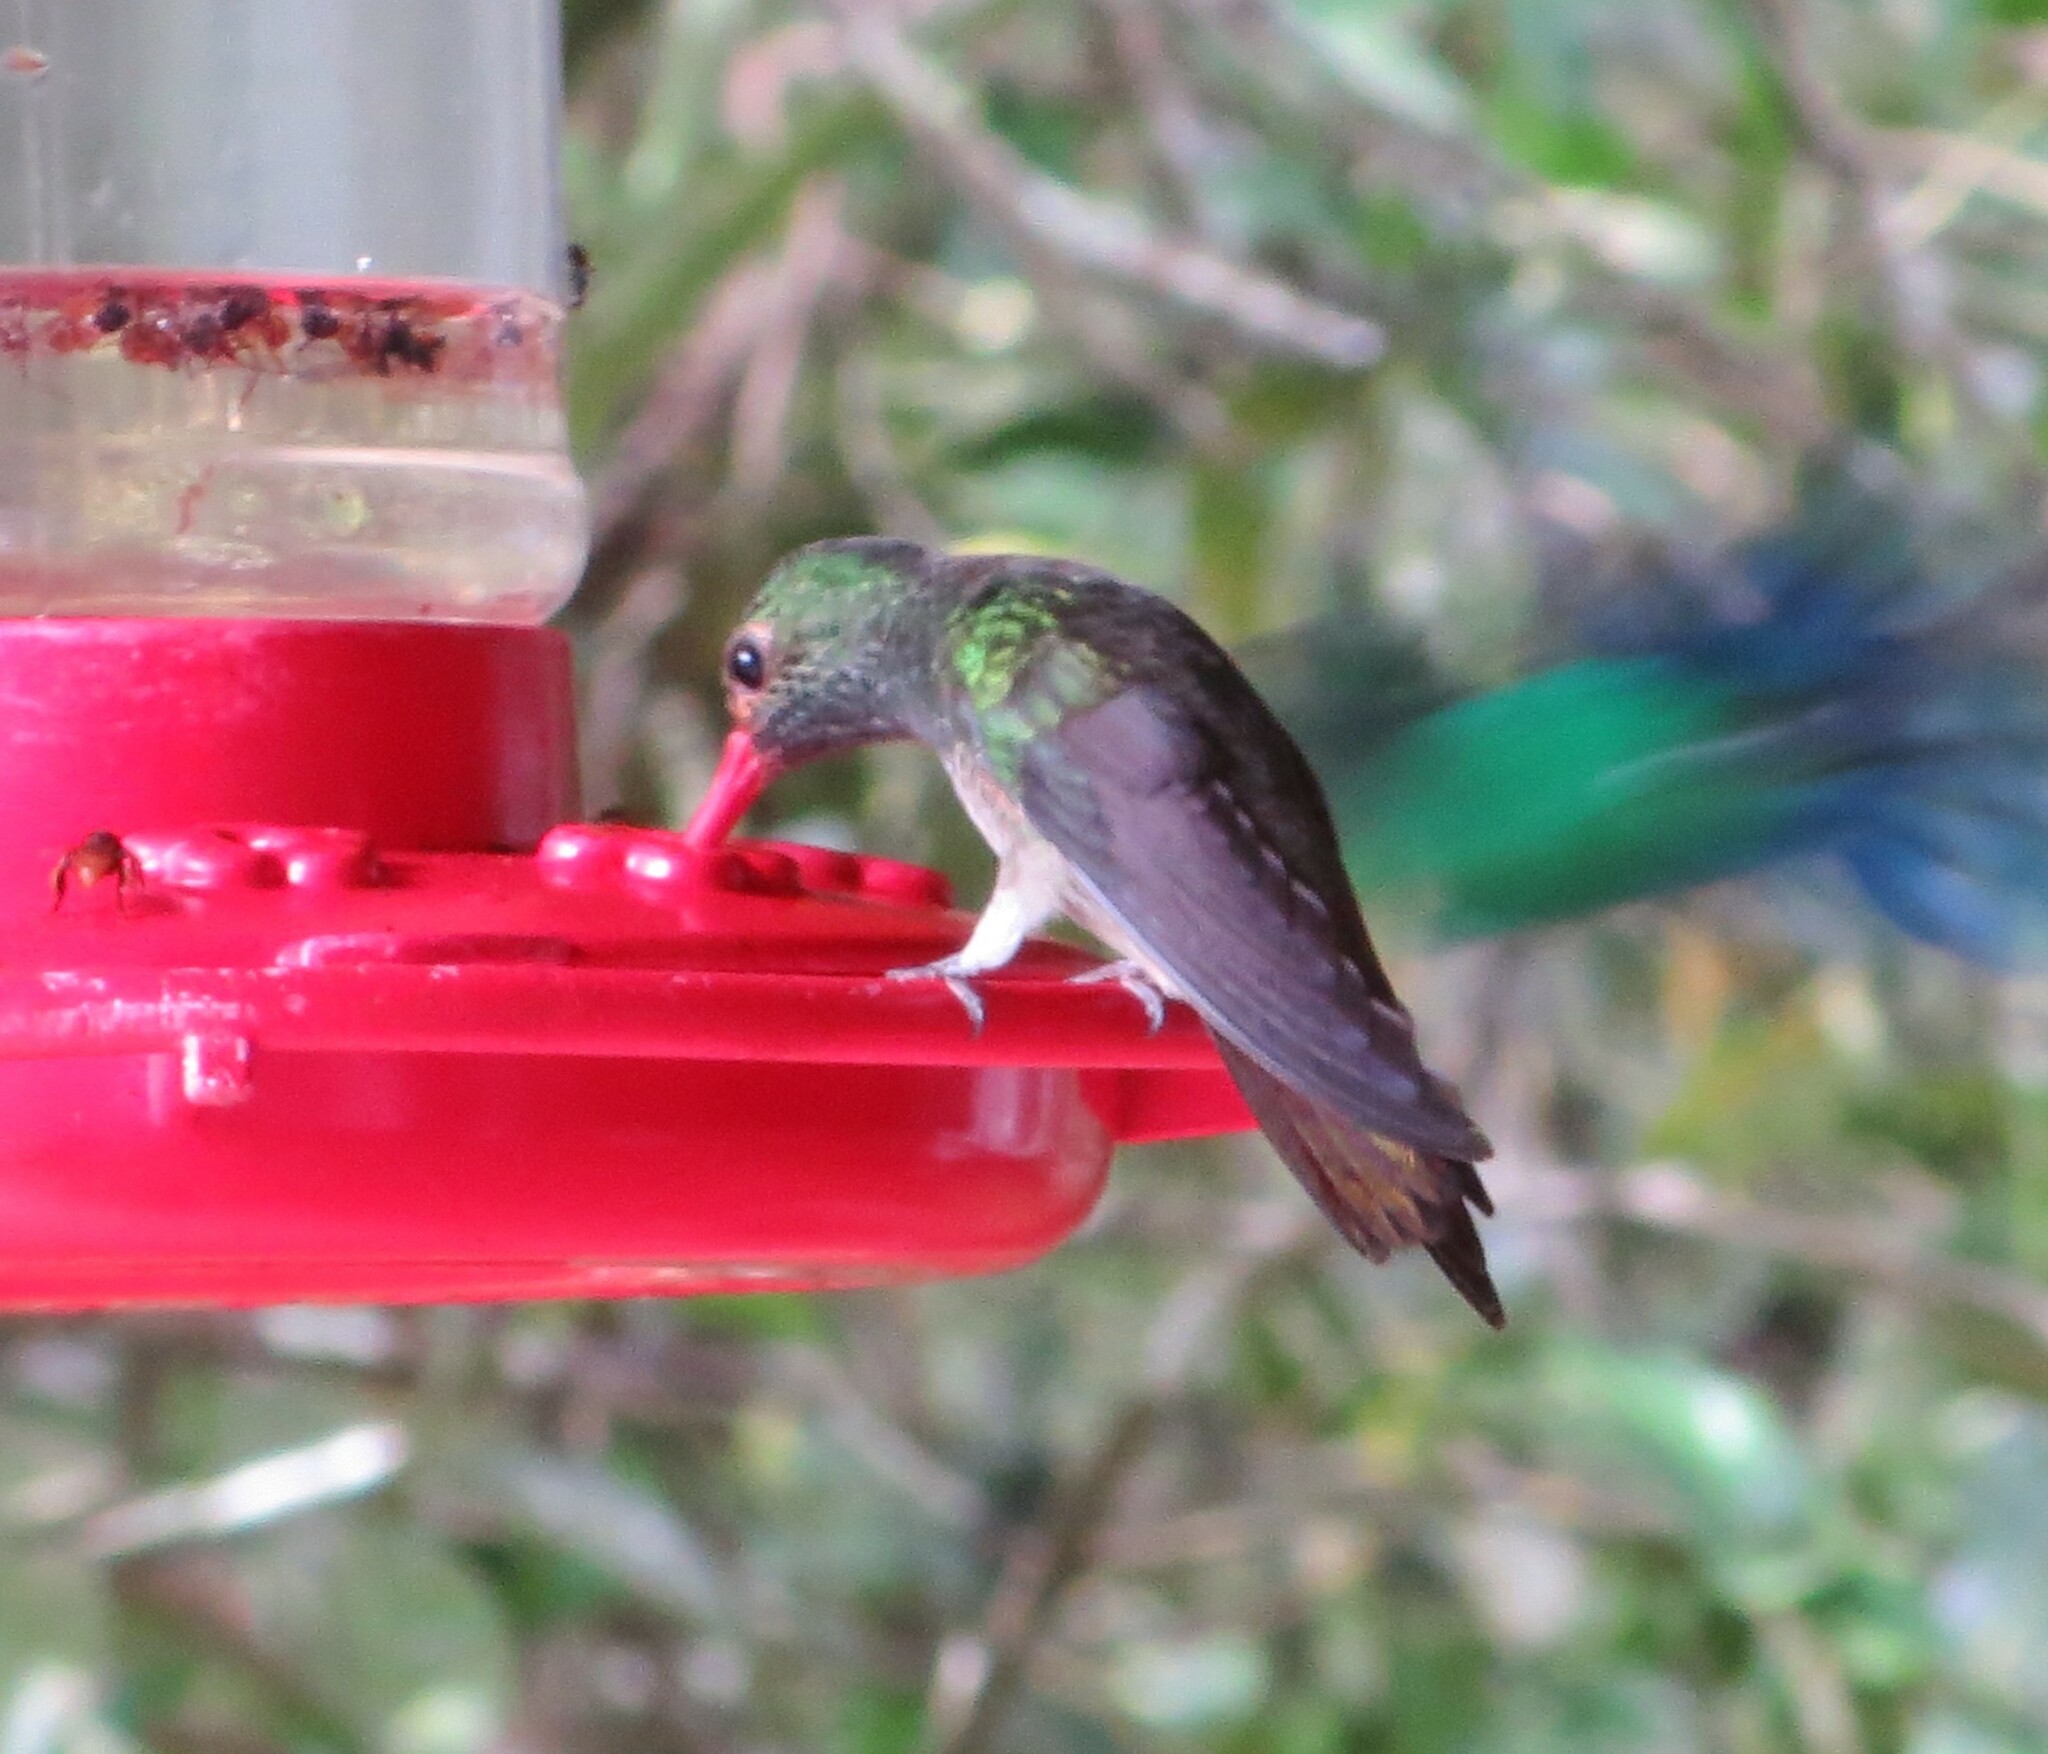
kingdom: Animalia
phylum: Chordata
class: Aves
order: Apodiformes
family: Trochilidae
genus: Amazilia
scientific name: Amazilia tzacatl
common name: Rufous-tailed hummingbird
